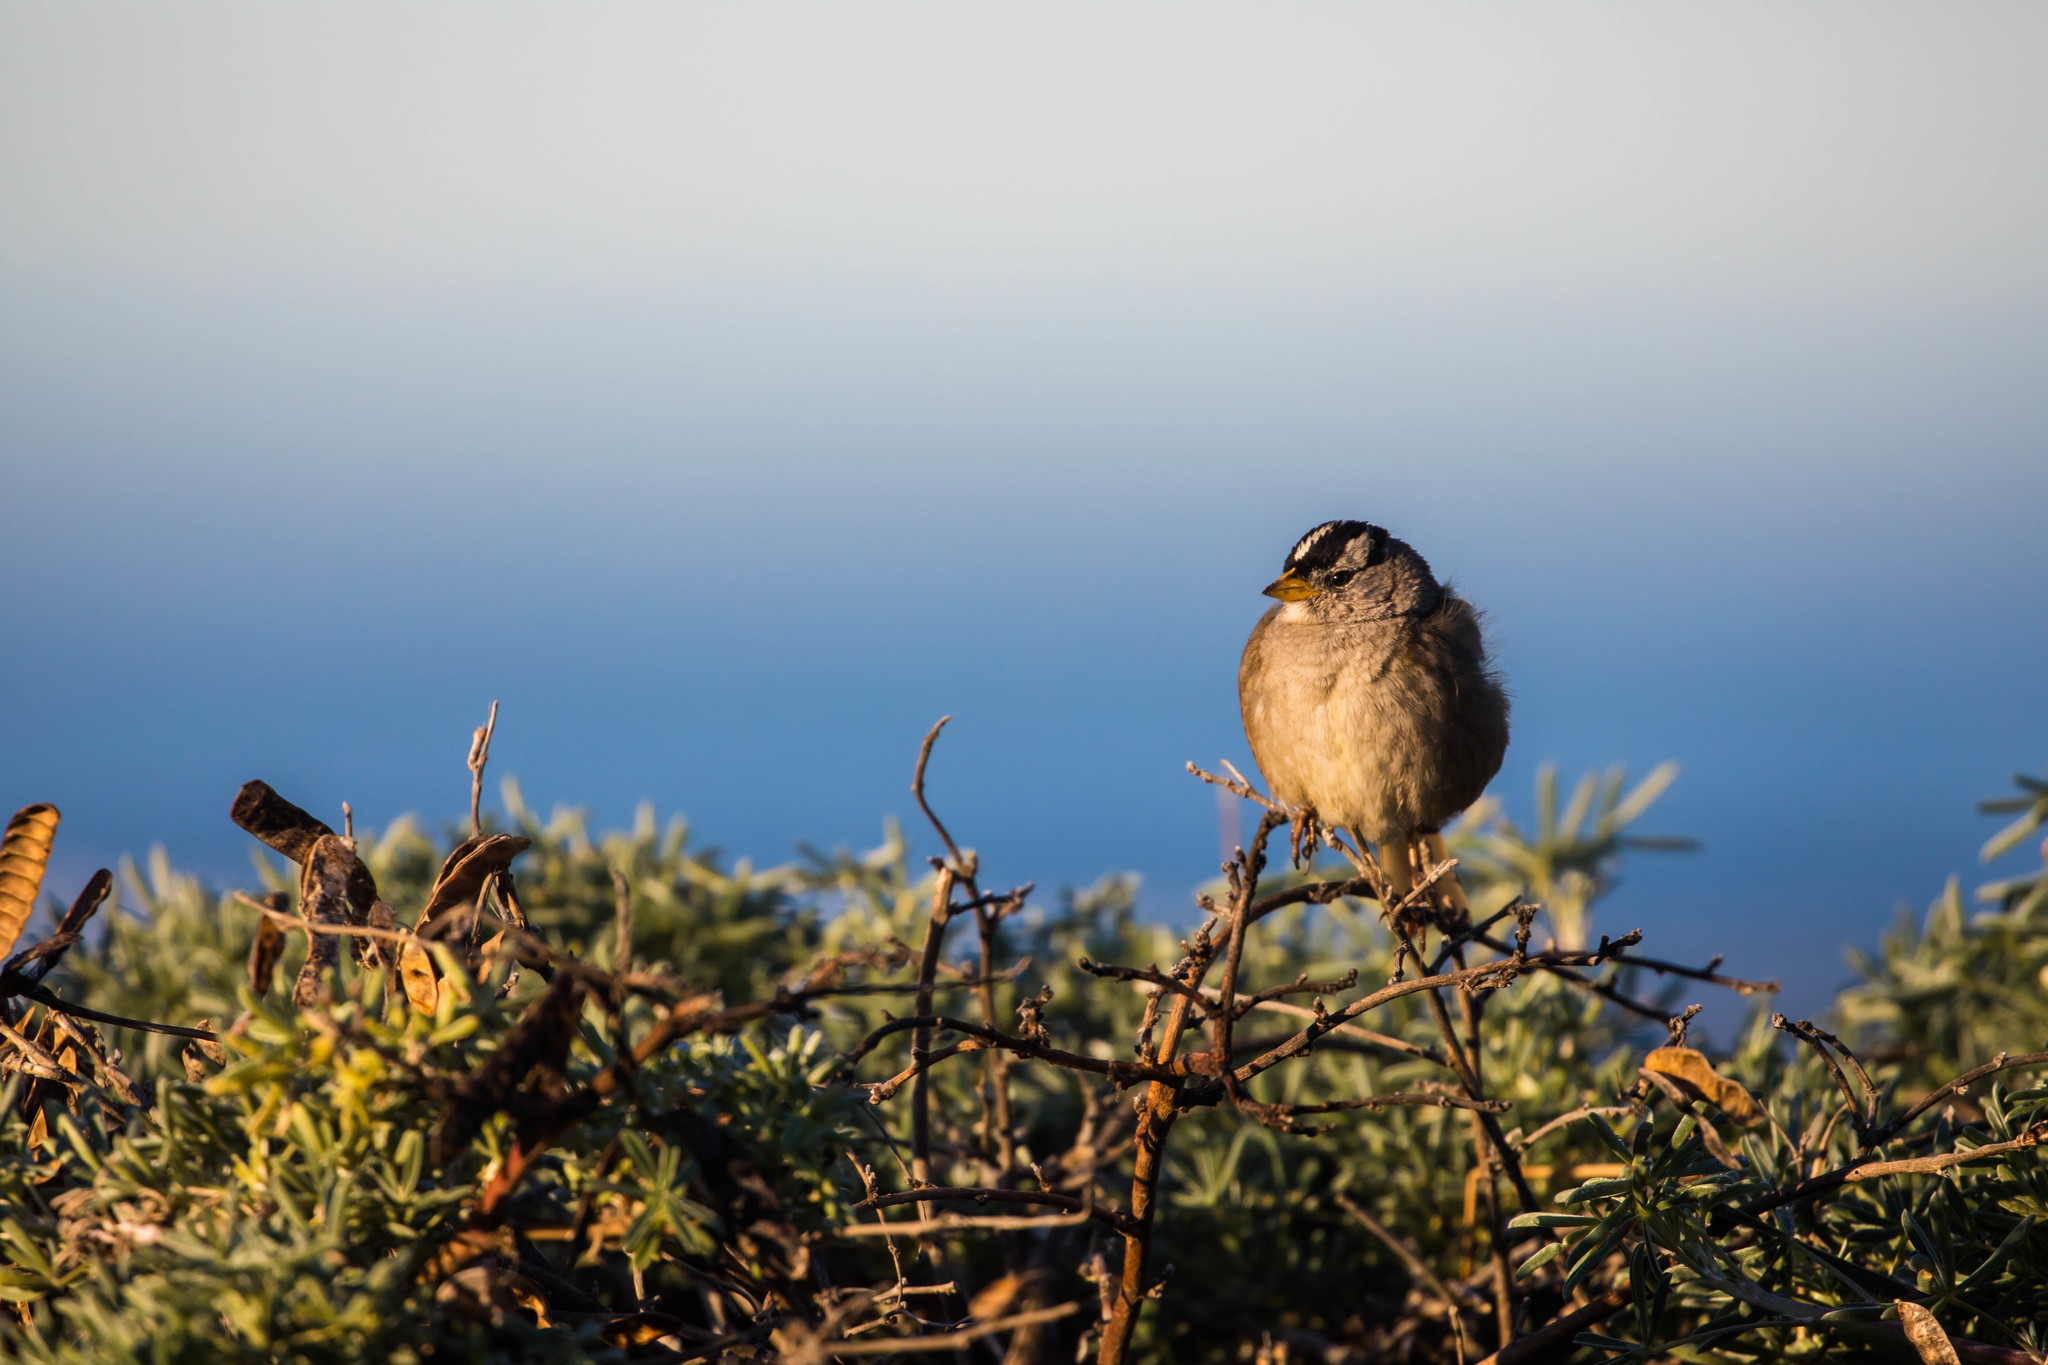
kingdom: Animalia
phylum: Chordata
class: Aves
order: Passeriformes
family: Passerellidae
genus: Zonotrichia
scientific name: Zonotrichia leucophrys
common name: White-crowned sparrow
